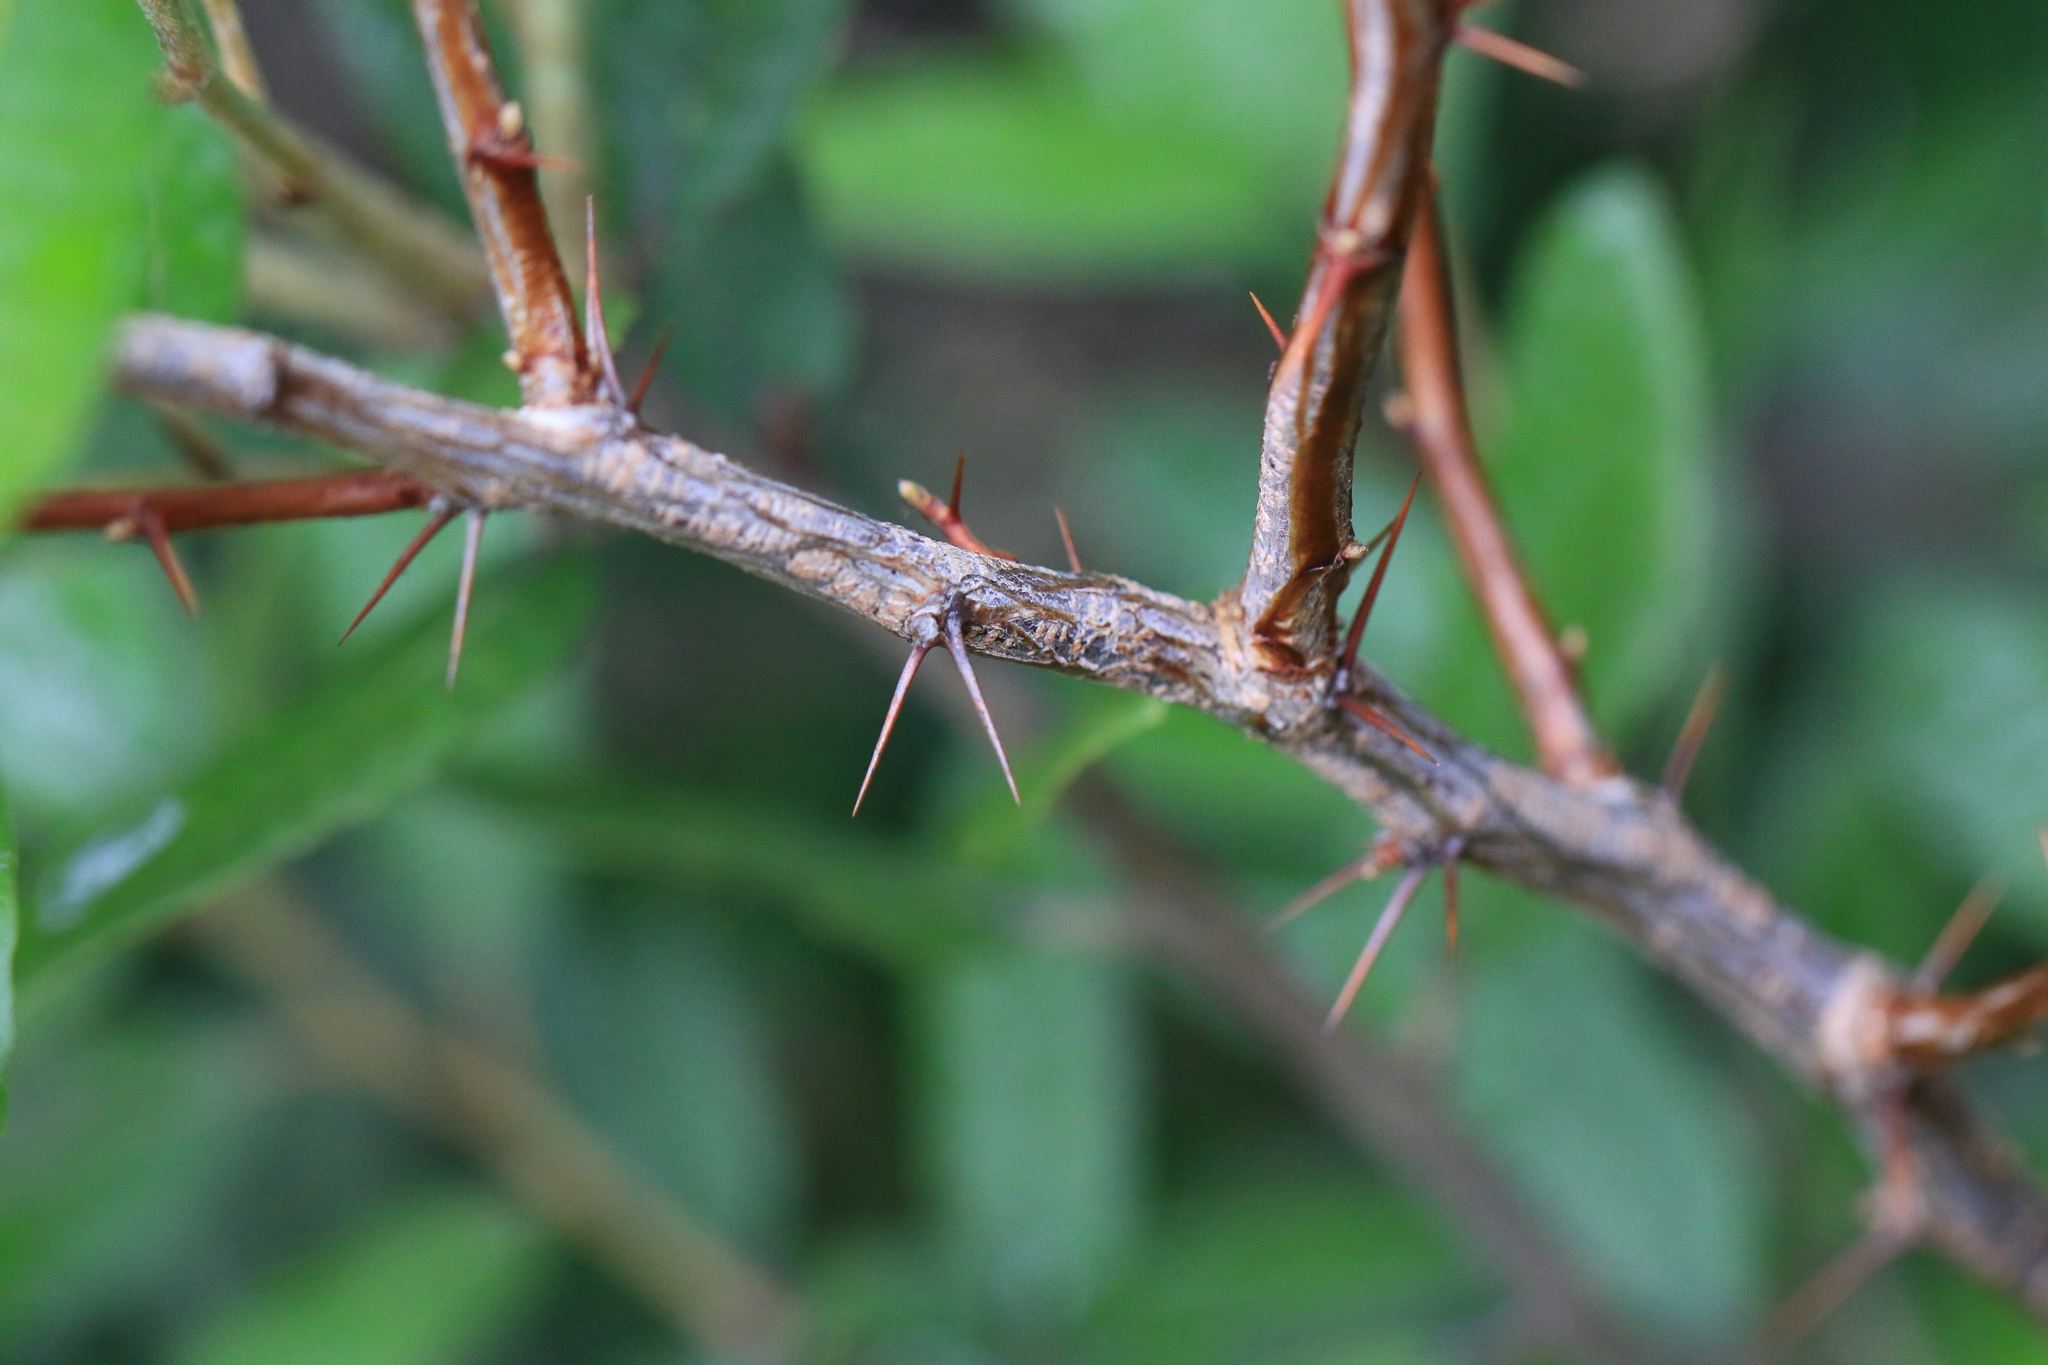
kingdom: Plantae
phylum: Tracheophyta
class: Magnoliopsida
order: Saxifragales
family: Grossulariaceae
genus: Ribes
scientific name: Ribes cruentum
